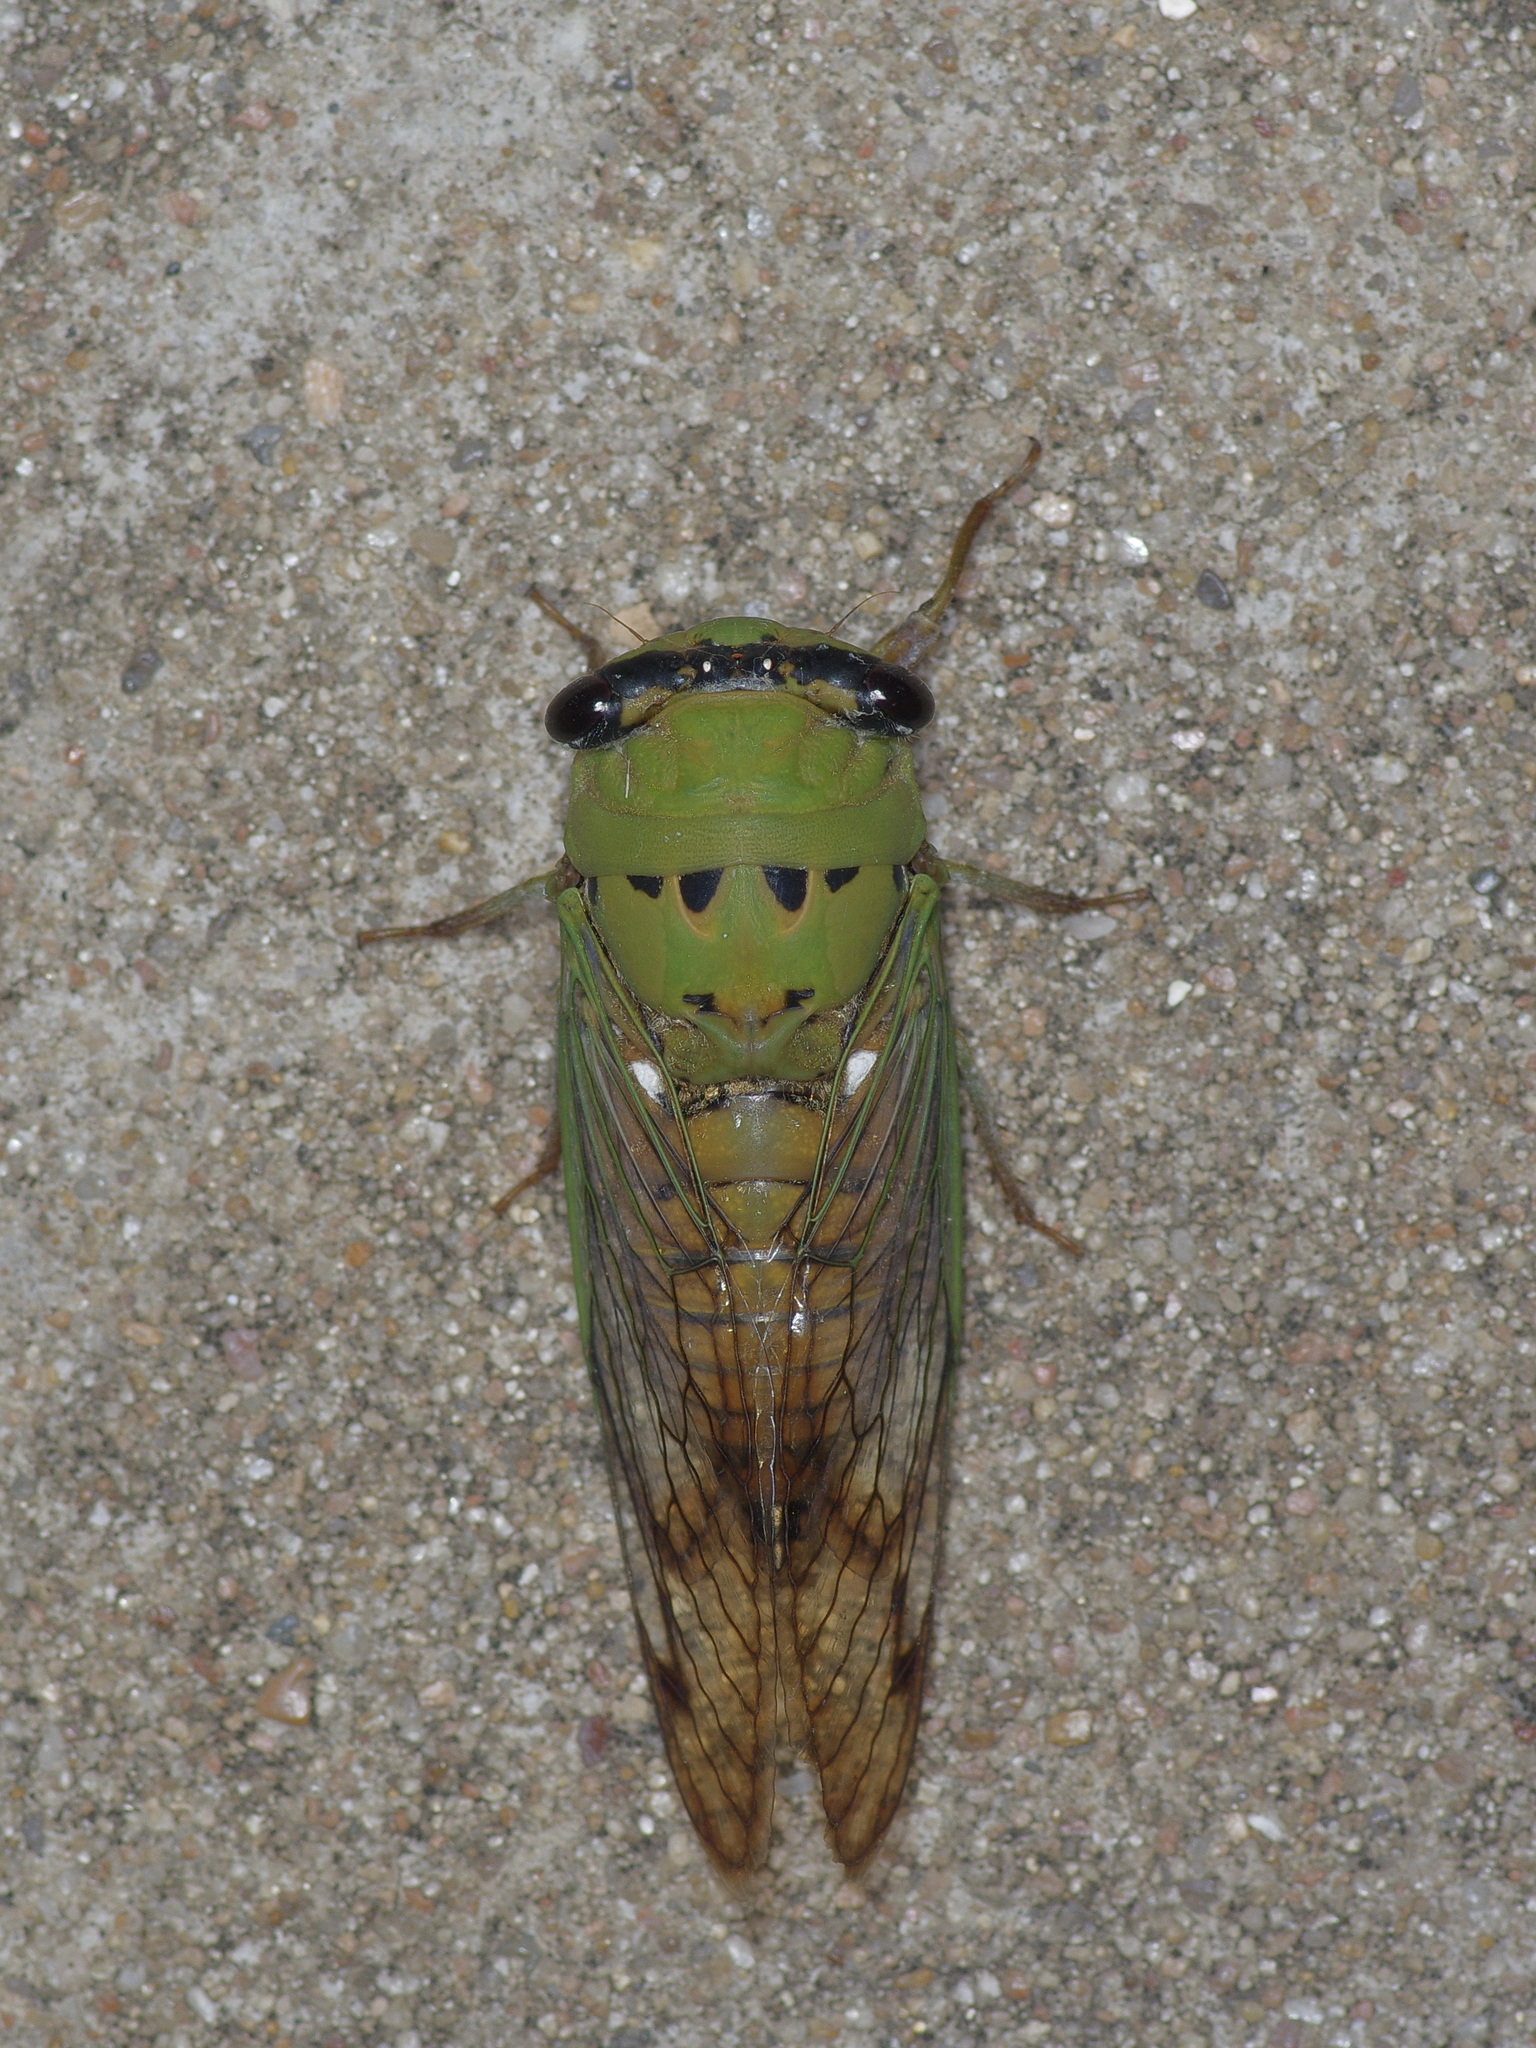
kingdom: Animalia
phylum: Arthropoda
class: Insecta
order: Hemiptera
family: Cicadidae
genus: Neotibicen
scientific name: Neotibicen superbus
